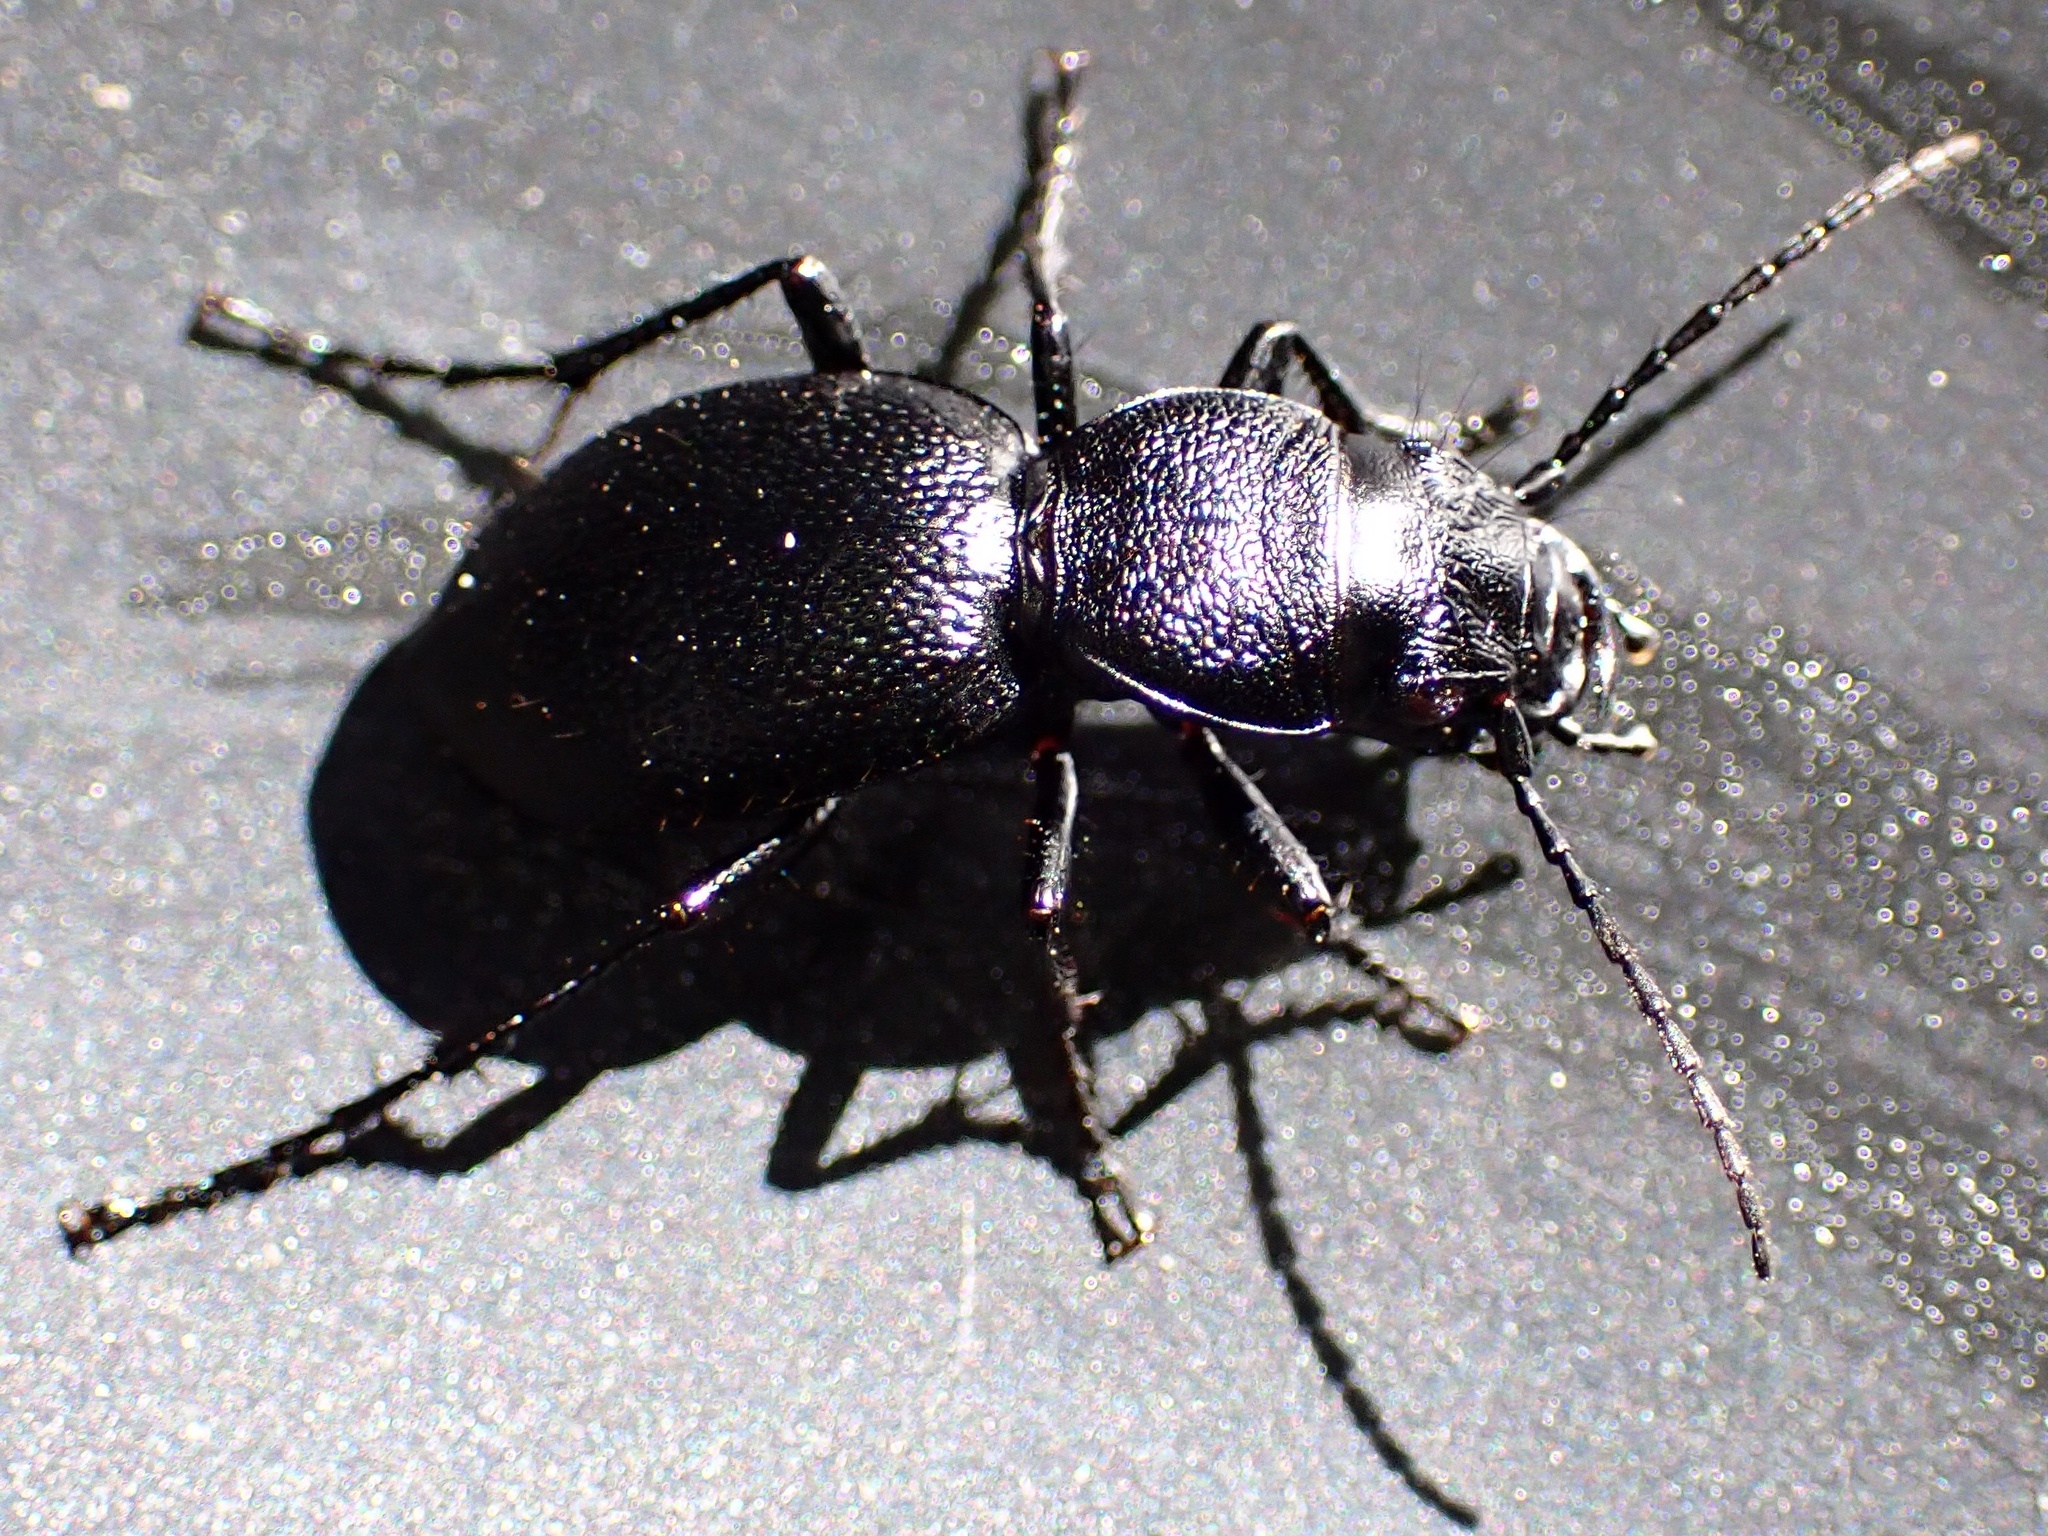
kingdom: Animalia
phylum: Arthropoda
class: Insecta
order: Coleoptera
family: Carabidae
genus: Omus
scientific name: Omus californicus
